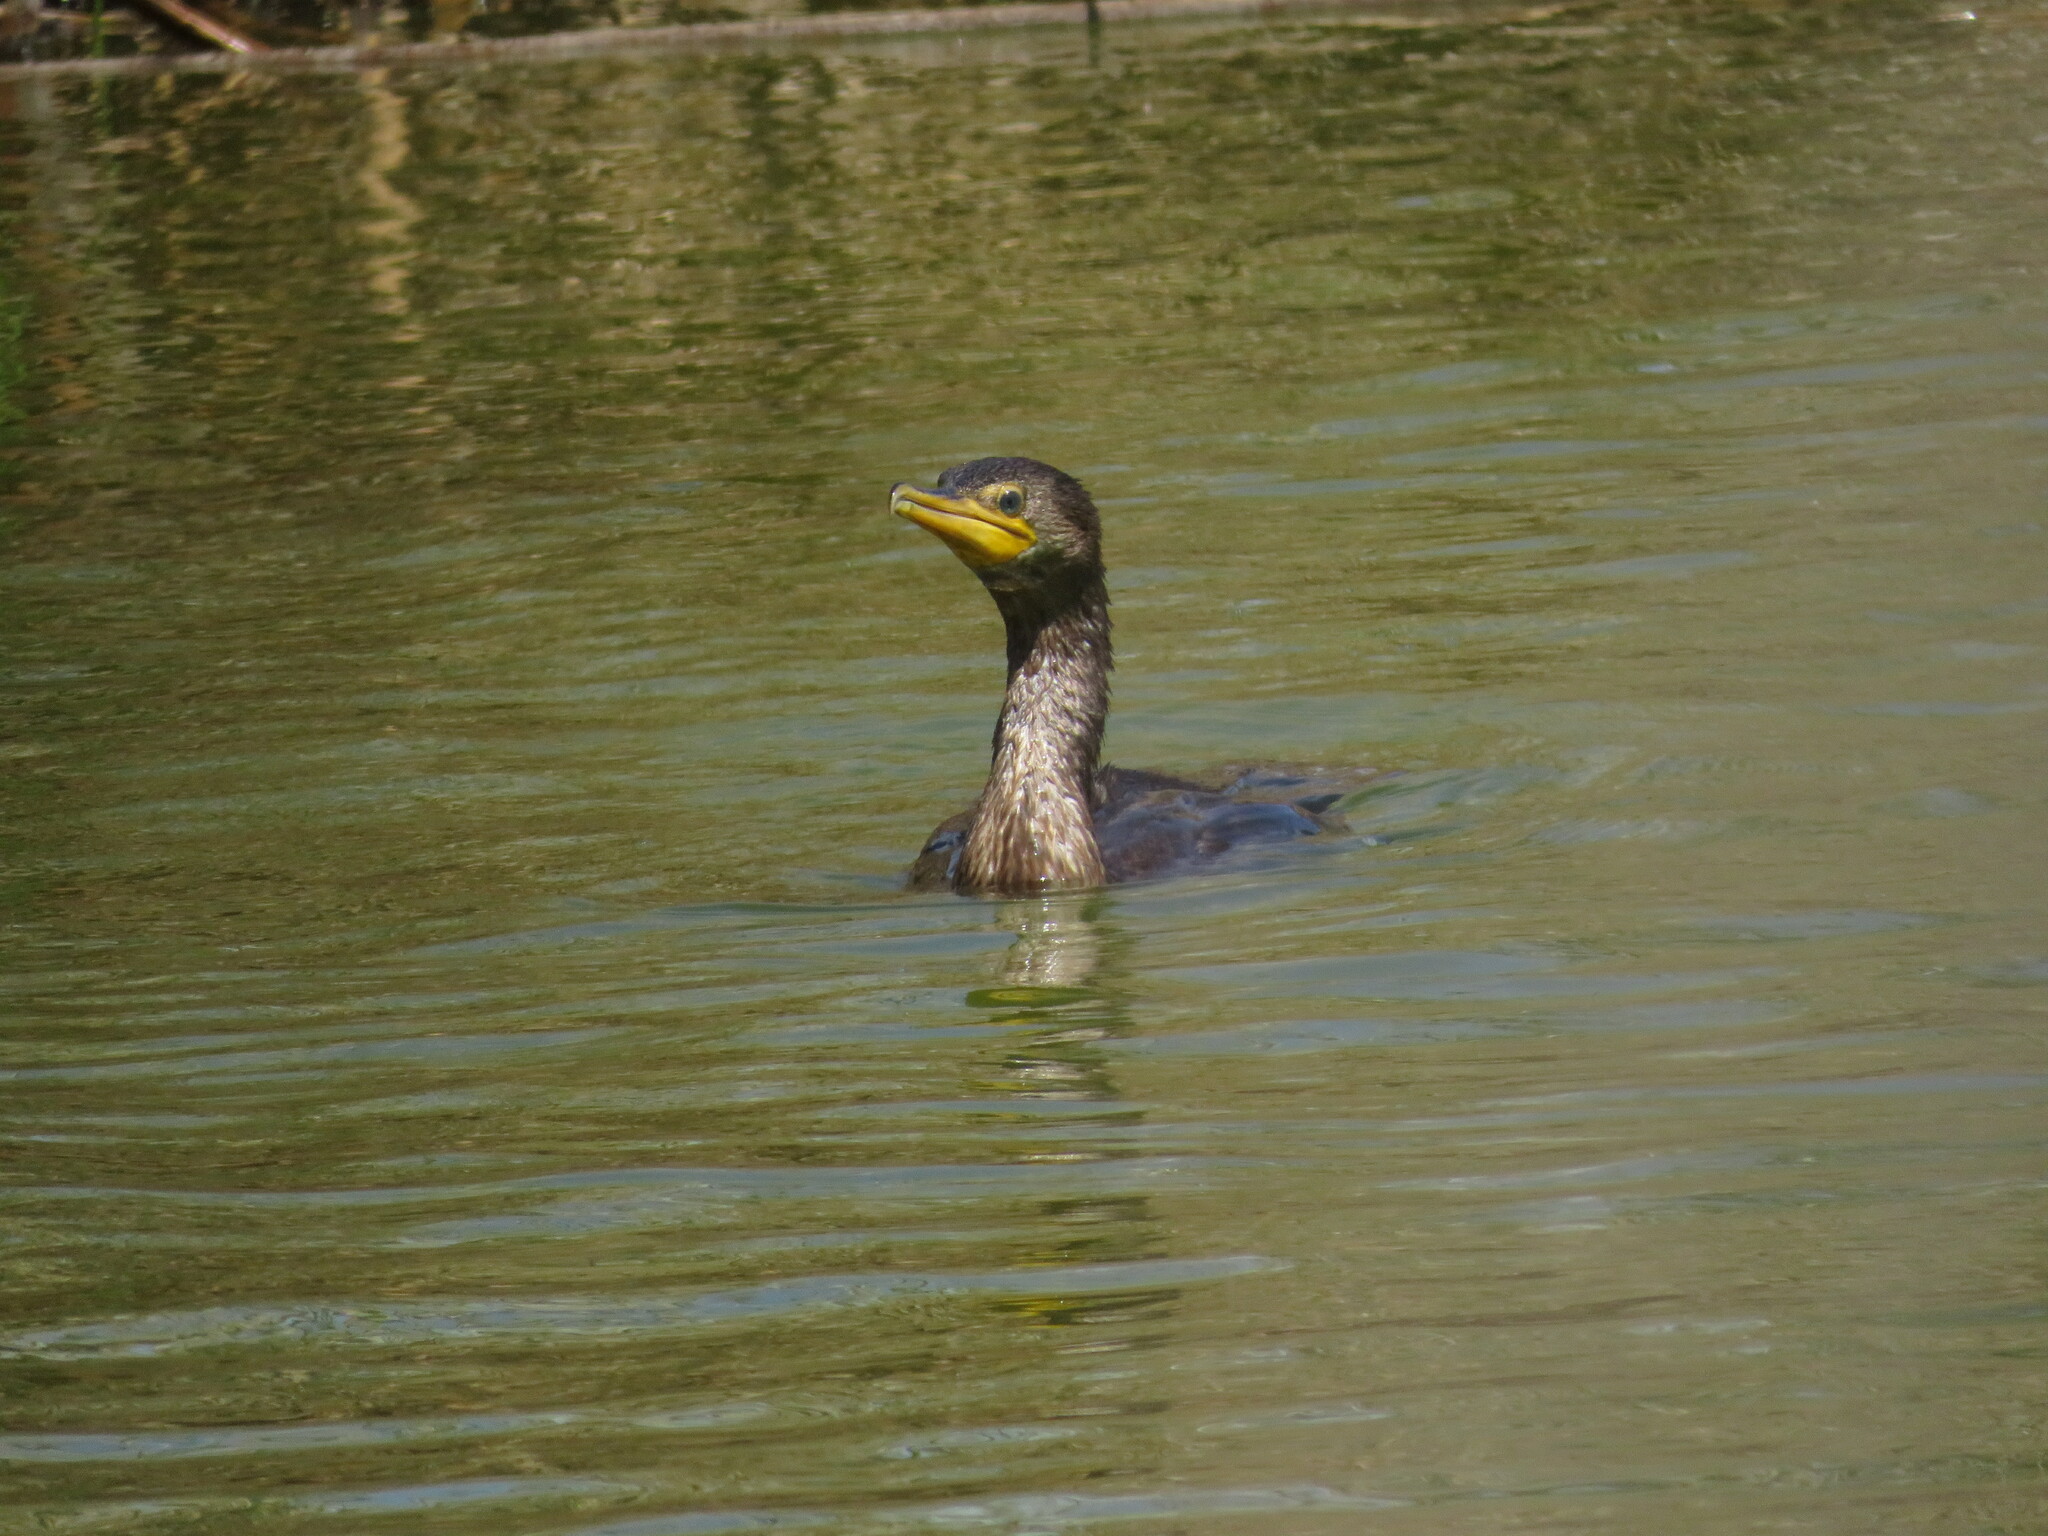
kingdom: Animalia
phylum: Chordata
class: Aves
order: Suliformes
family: Phalacrocoracidae
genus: Phalacrocorax
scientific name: Phalacrocorax brasilianus
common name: Neotropic cormorant
